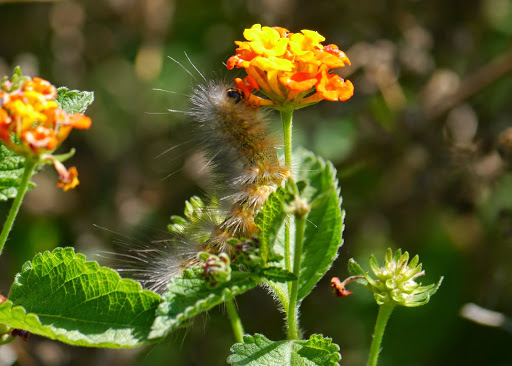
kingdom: Animalia
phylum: Arthropoda
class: Insecta
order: Lepidoptera
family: Erebidae
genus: Estigmene
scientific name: Estigmene acrea
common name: Salt marsh moth
